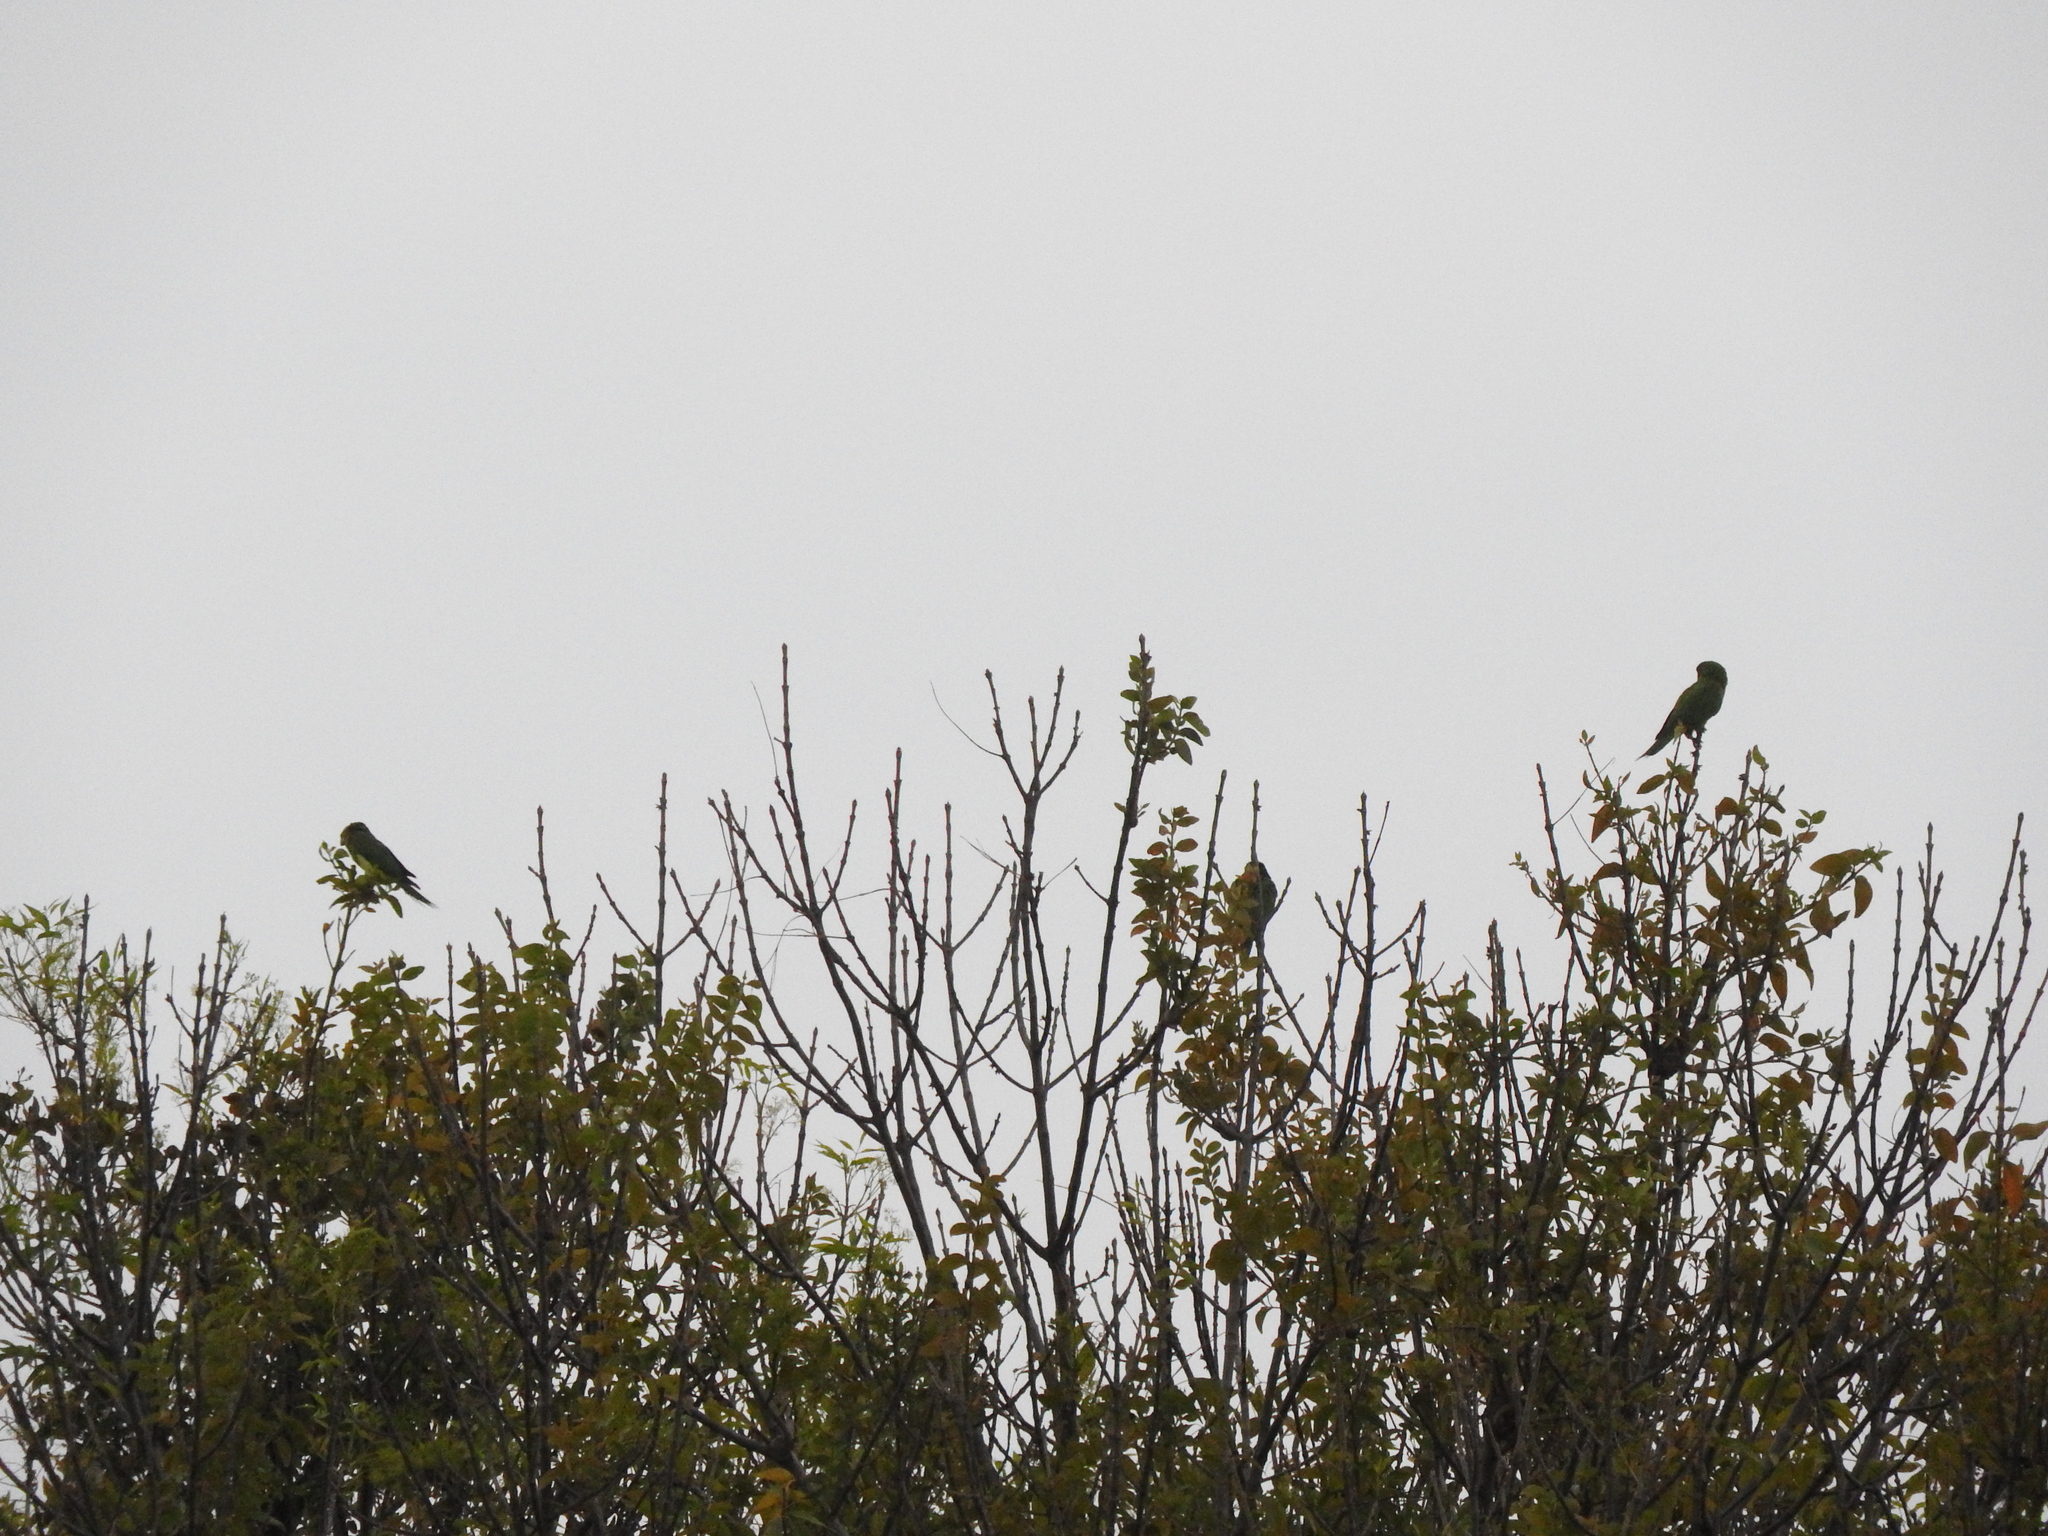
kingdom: Animalia
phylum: Chordata
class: Aves
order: Psittaciformes
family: Psittacidae
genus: Aratinga
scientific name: Aratinga holochlora
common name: Green parakeet
